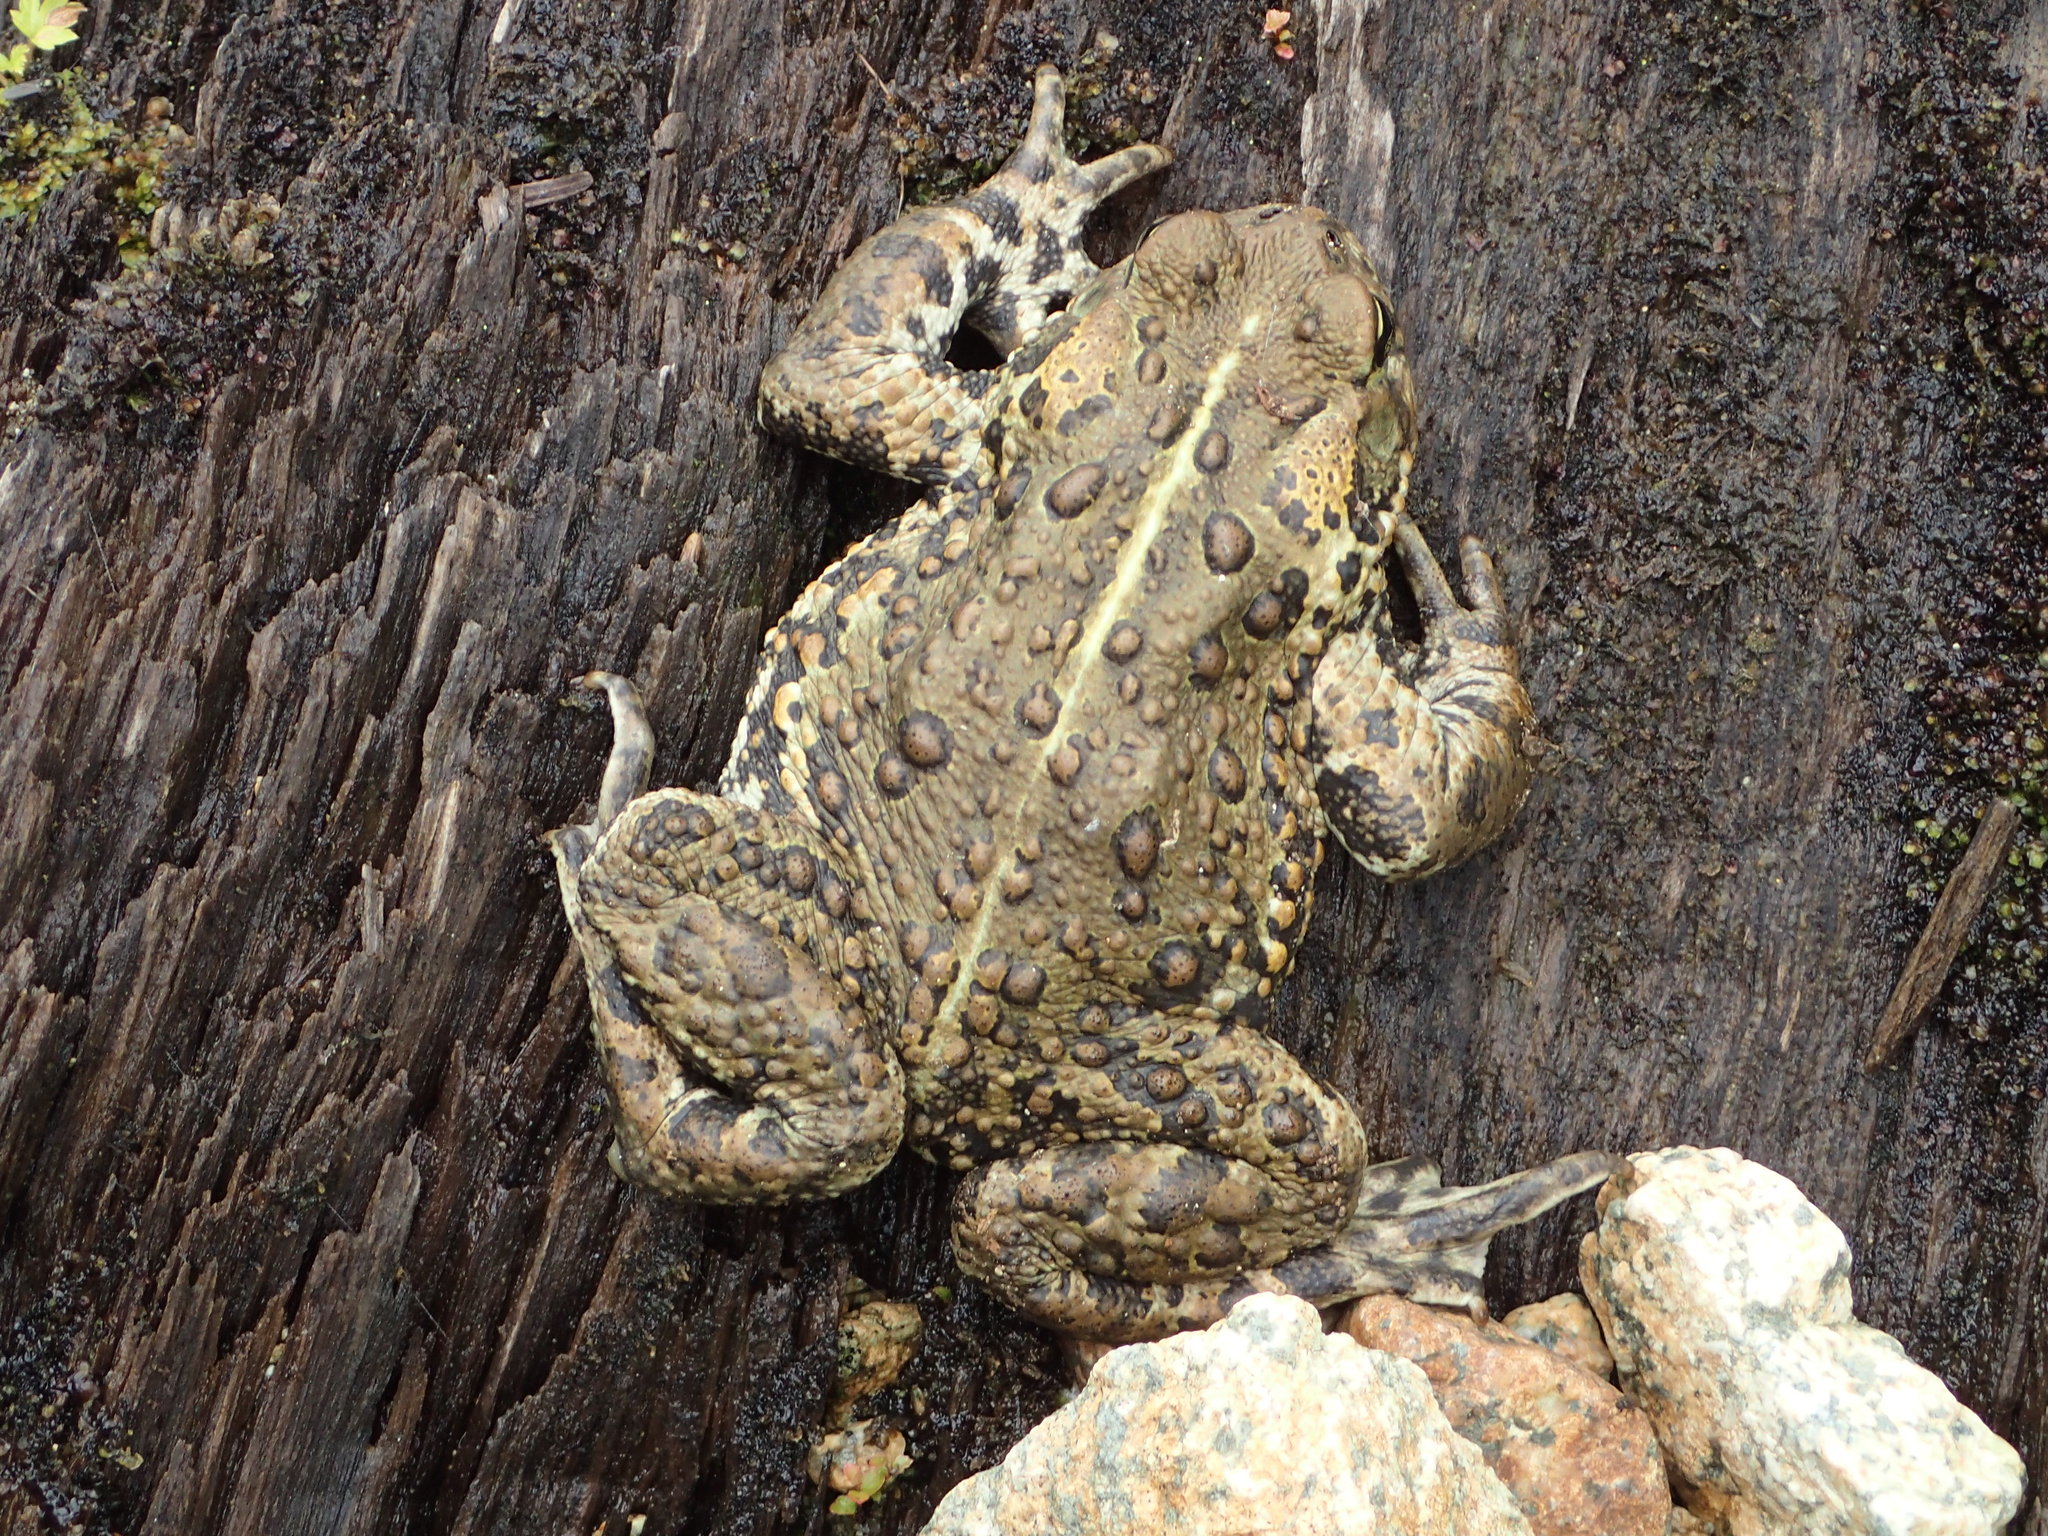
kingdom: Animalia
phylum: Chordata
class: Amphibia
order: Anura
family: Bufonidae
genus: Anaxyrus
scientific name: Anaxyrus boreas
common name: Western toad
